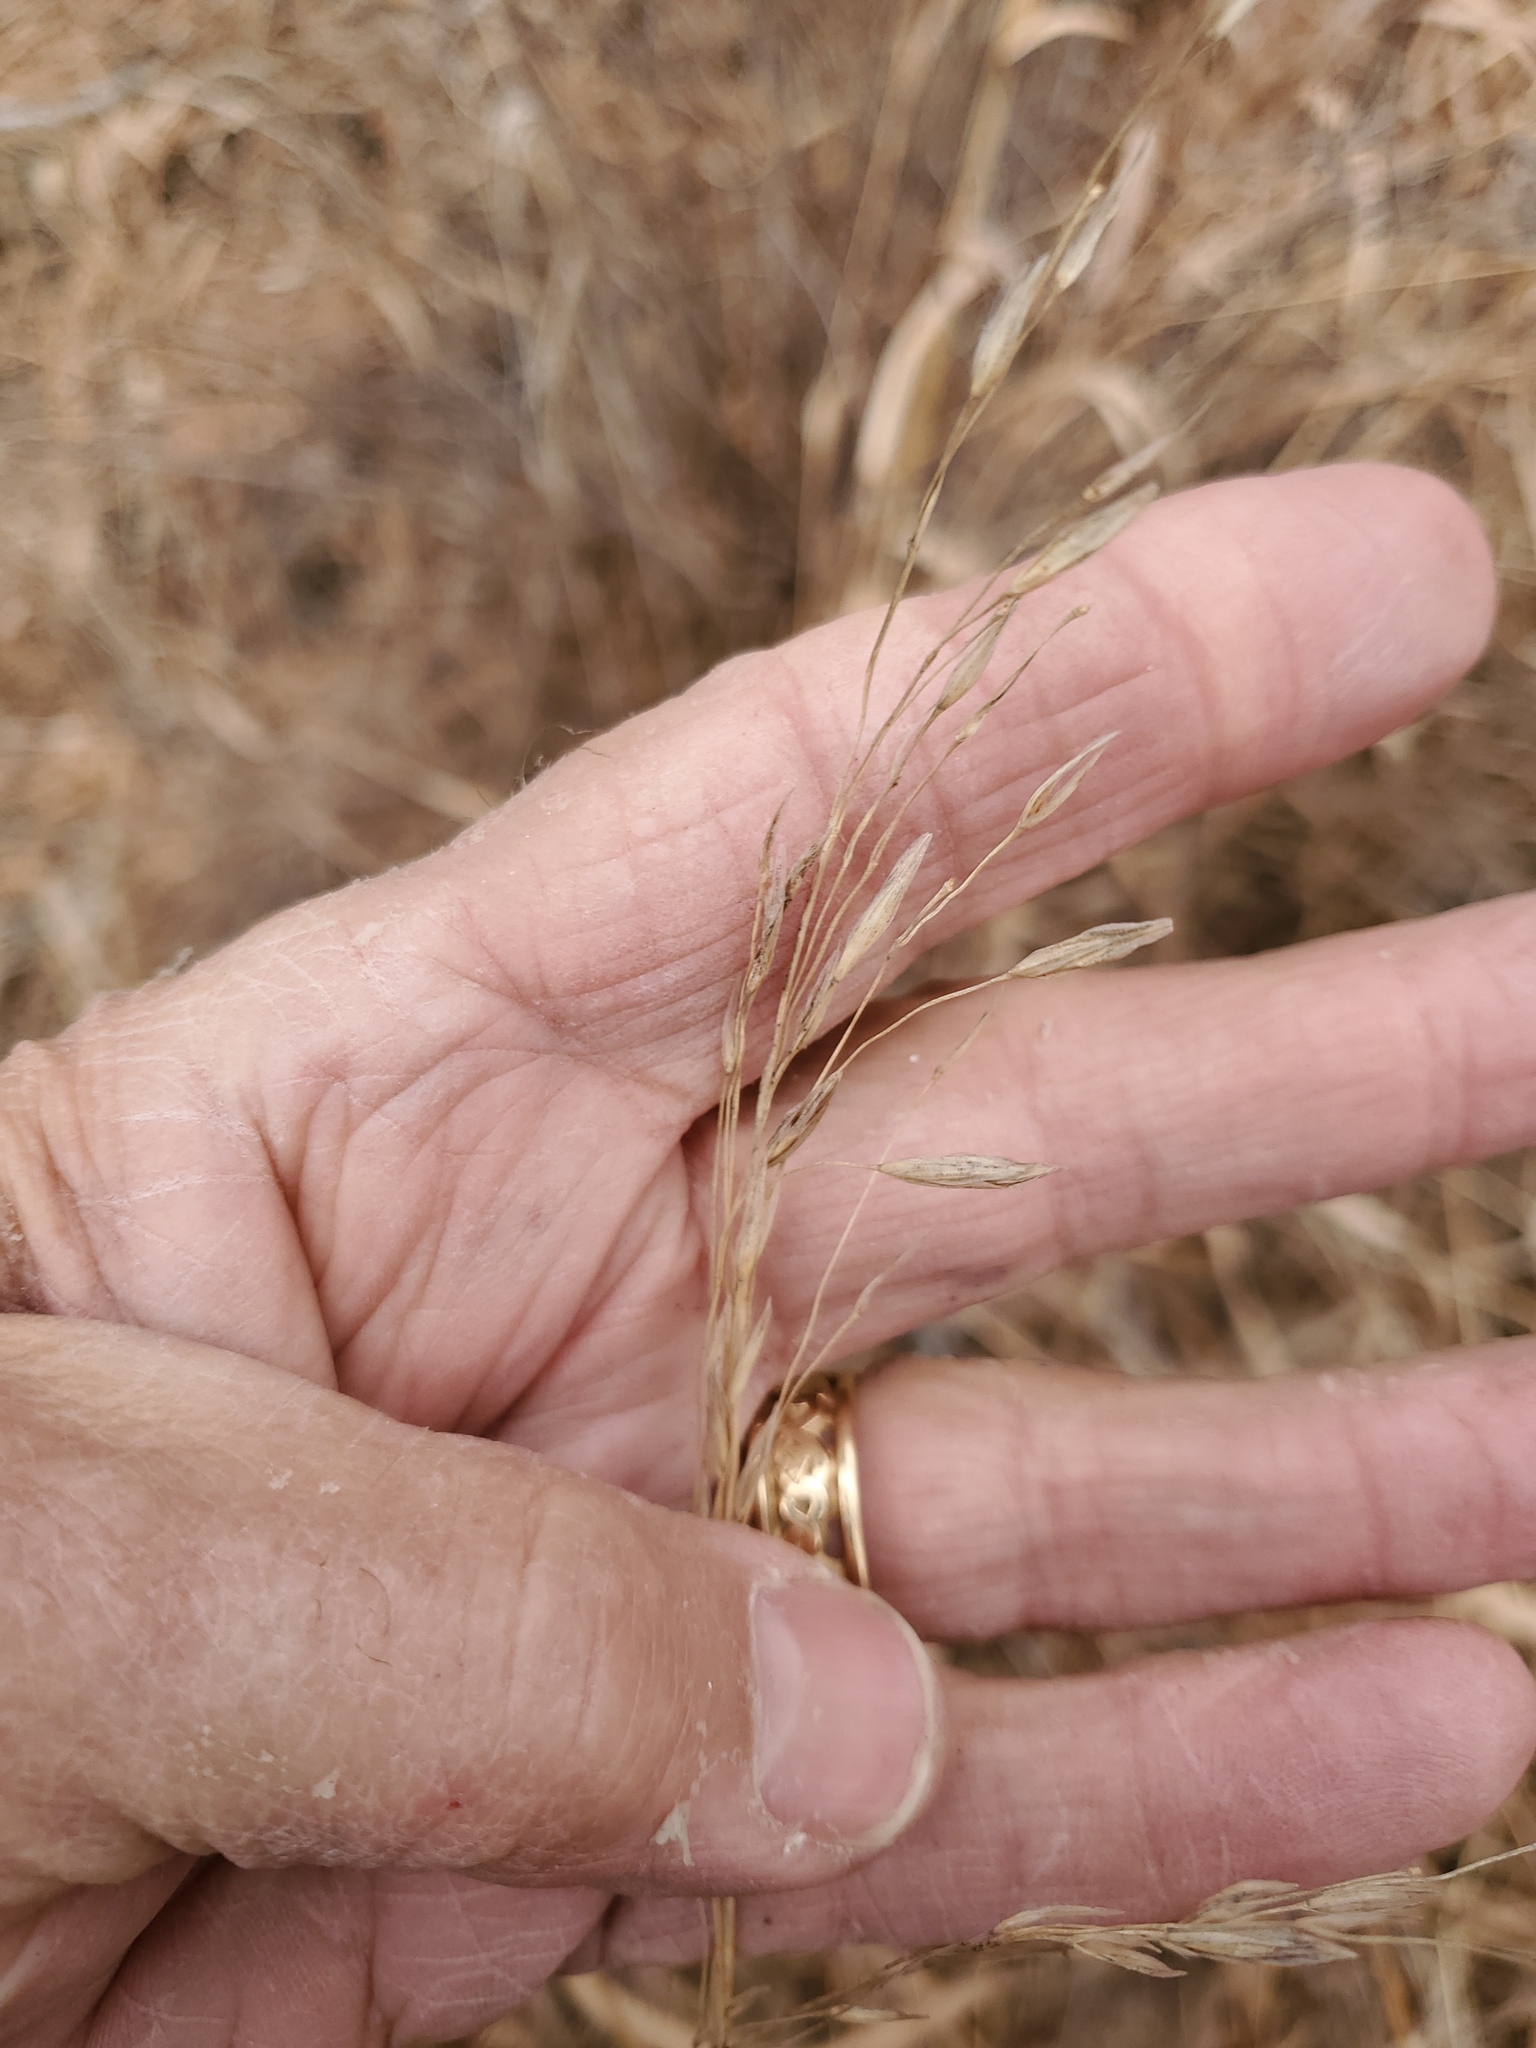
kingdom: Plantae
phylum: Tracheophyta
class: Liliopsida
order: Poales
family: Poaceae
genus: Bromus
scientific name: Bromus inermis
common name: Smooth brome
